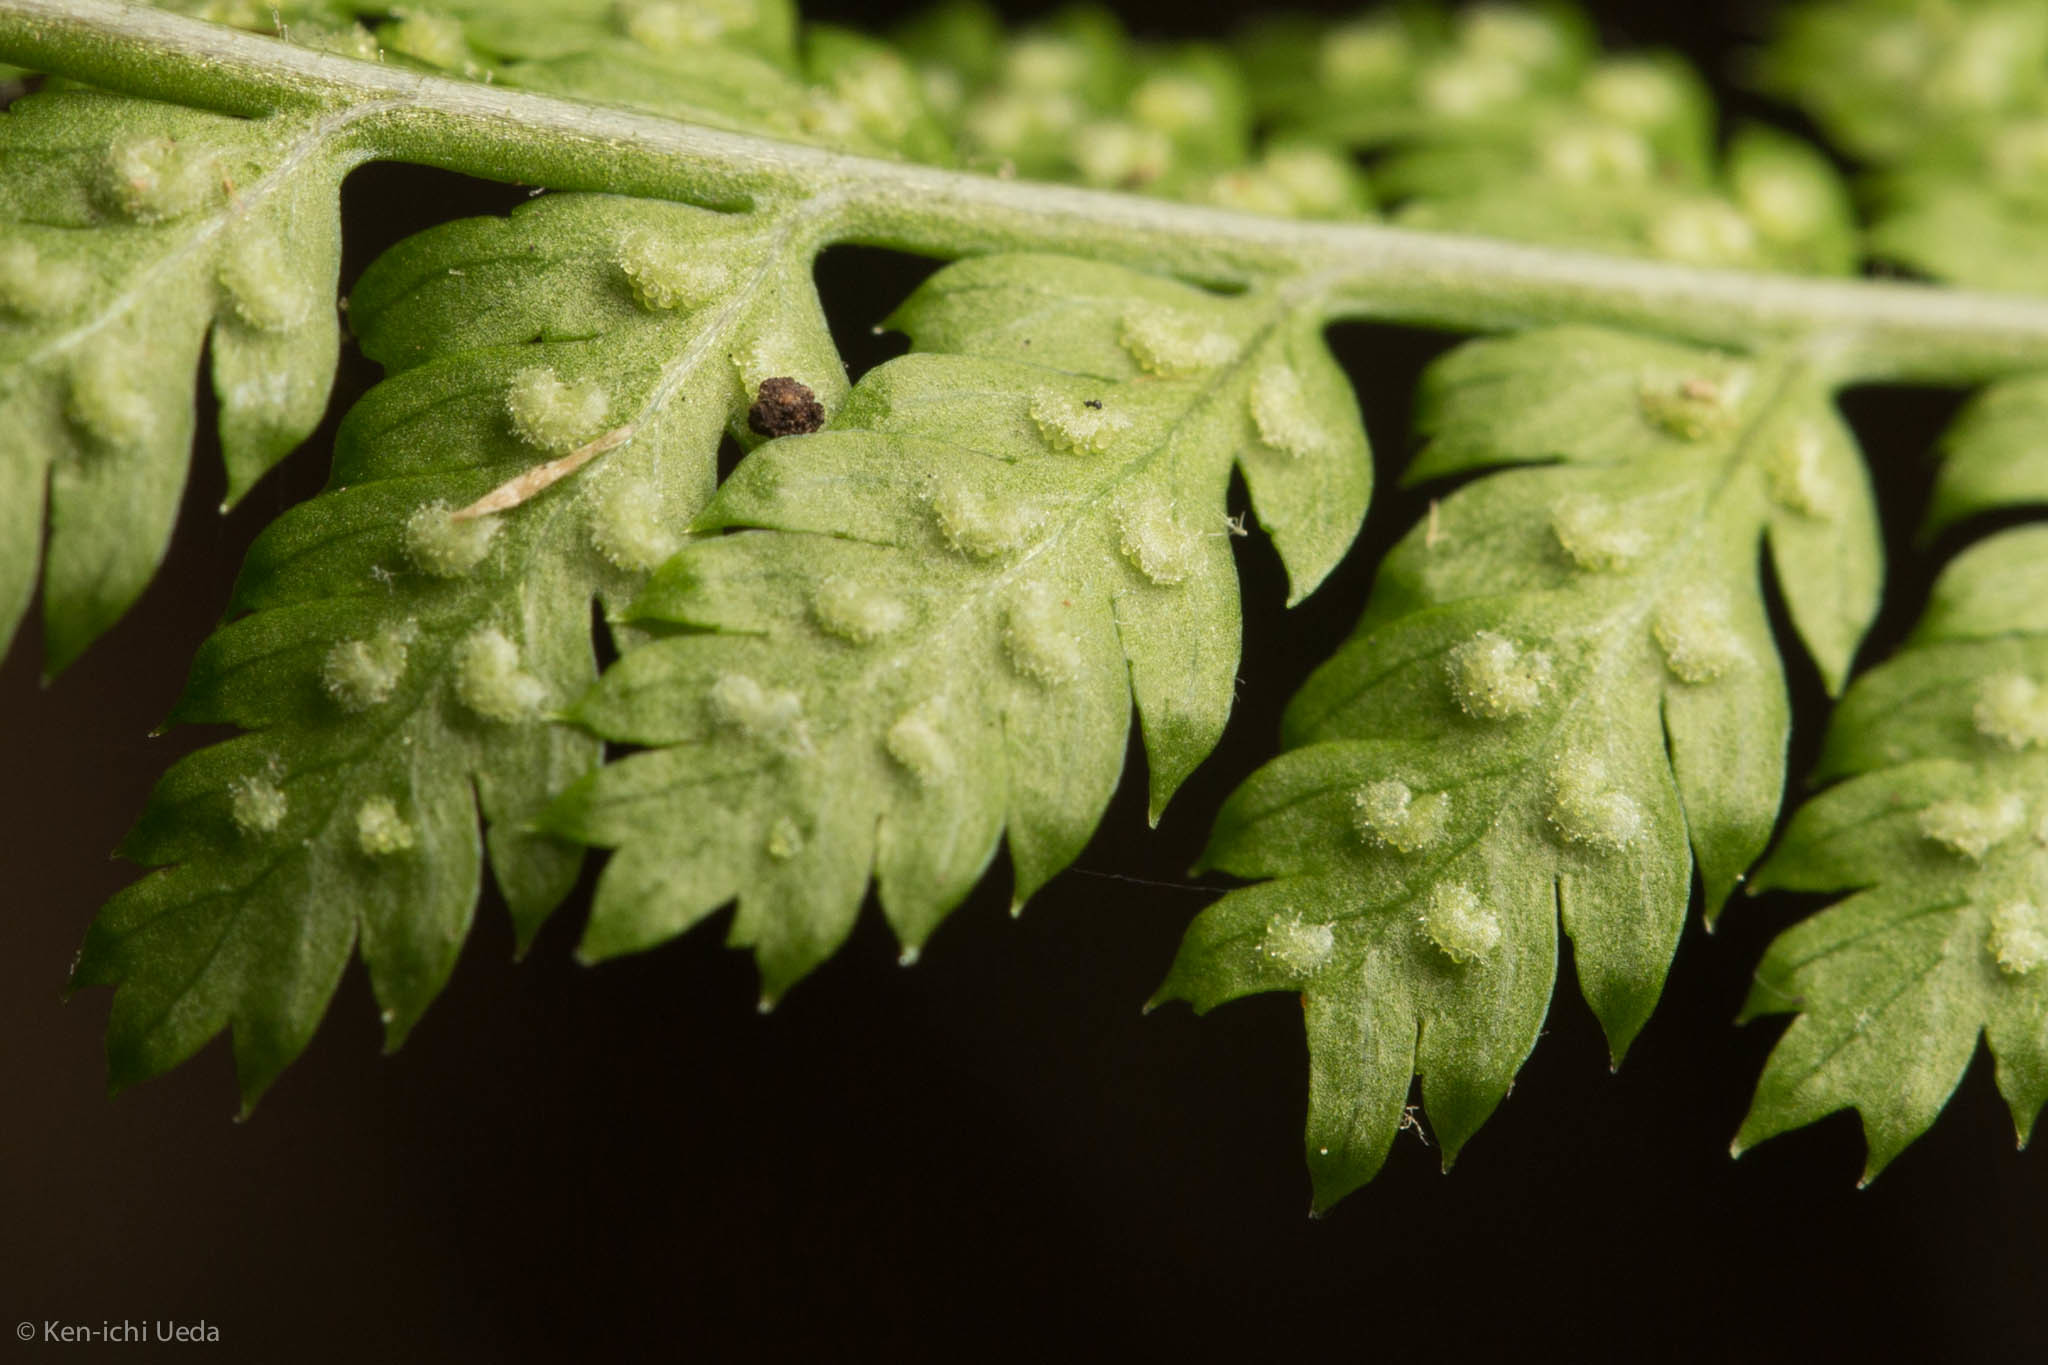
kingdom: Plantae
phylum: Tracheophyta
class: Polypodiopsida
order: Polypodiales
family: Dryopteridaceae
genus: Dryopteris
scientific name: Dryopteris intermedia
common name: Evergreen wood fern
